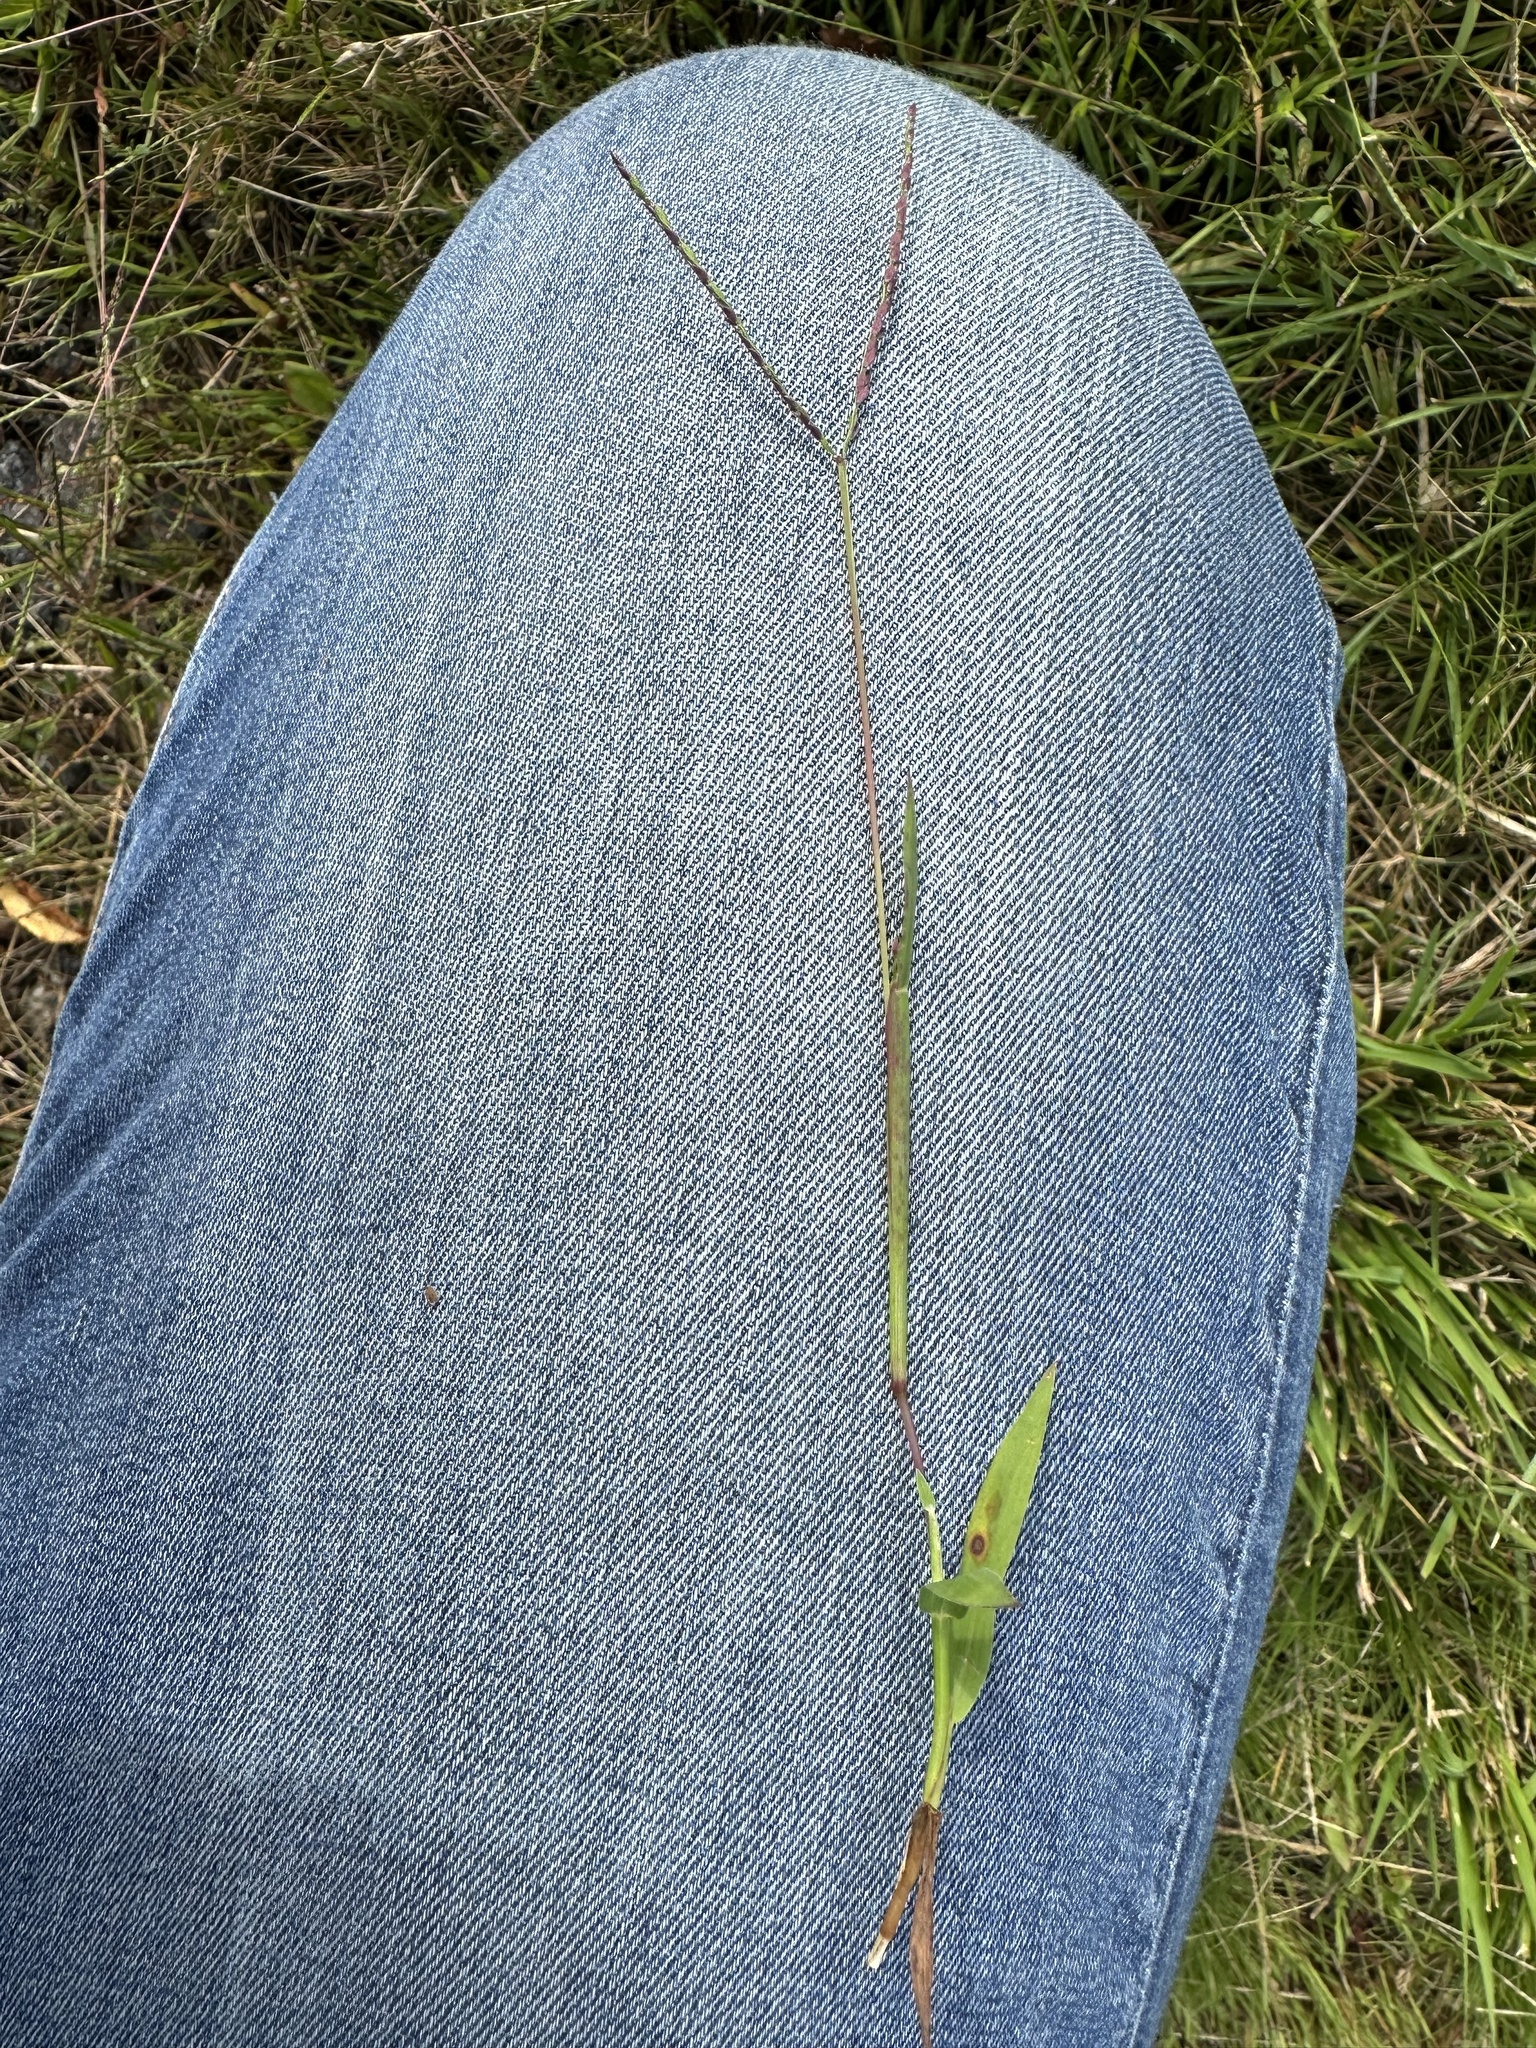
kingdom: Plantae
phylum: Tracheophyta
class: Liliopsida
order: Poales
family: Poaceae
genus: Digitaria
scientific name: Digitaria ischaemum
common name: Smooth crabgrass
